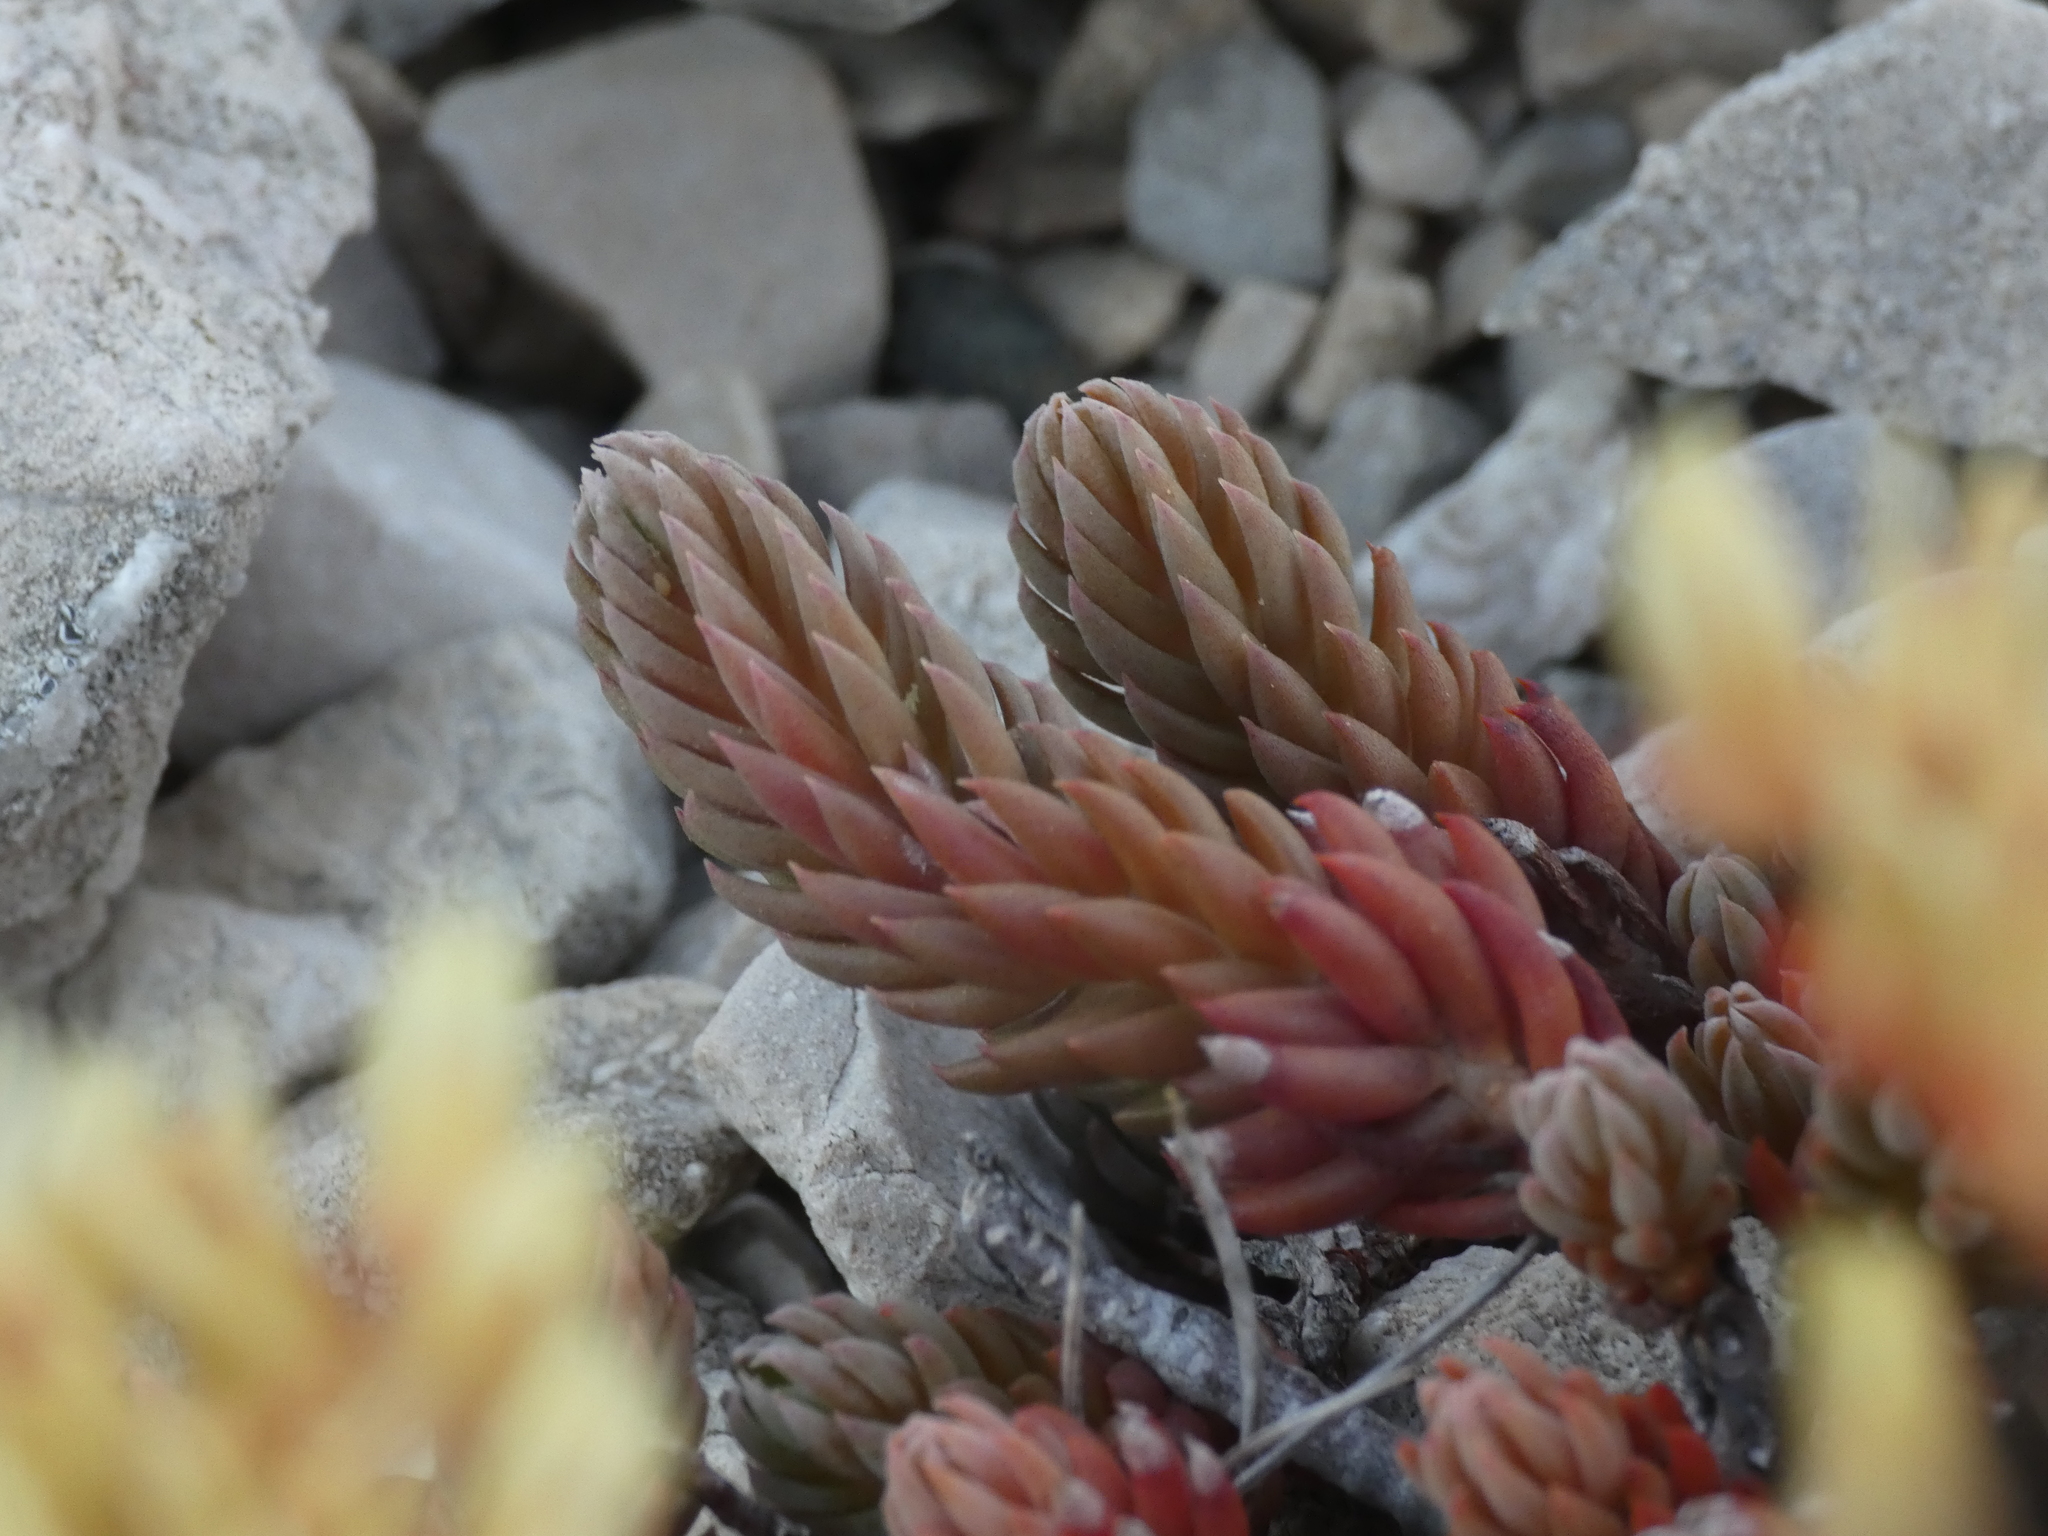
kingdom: Plantae
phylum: Tracheophyta
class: Magnoliopsida
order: Saxifragales
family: Crassulaceae
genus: Petrosedum
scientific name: Petrosedum ochroleucum
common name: European stonecrop
